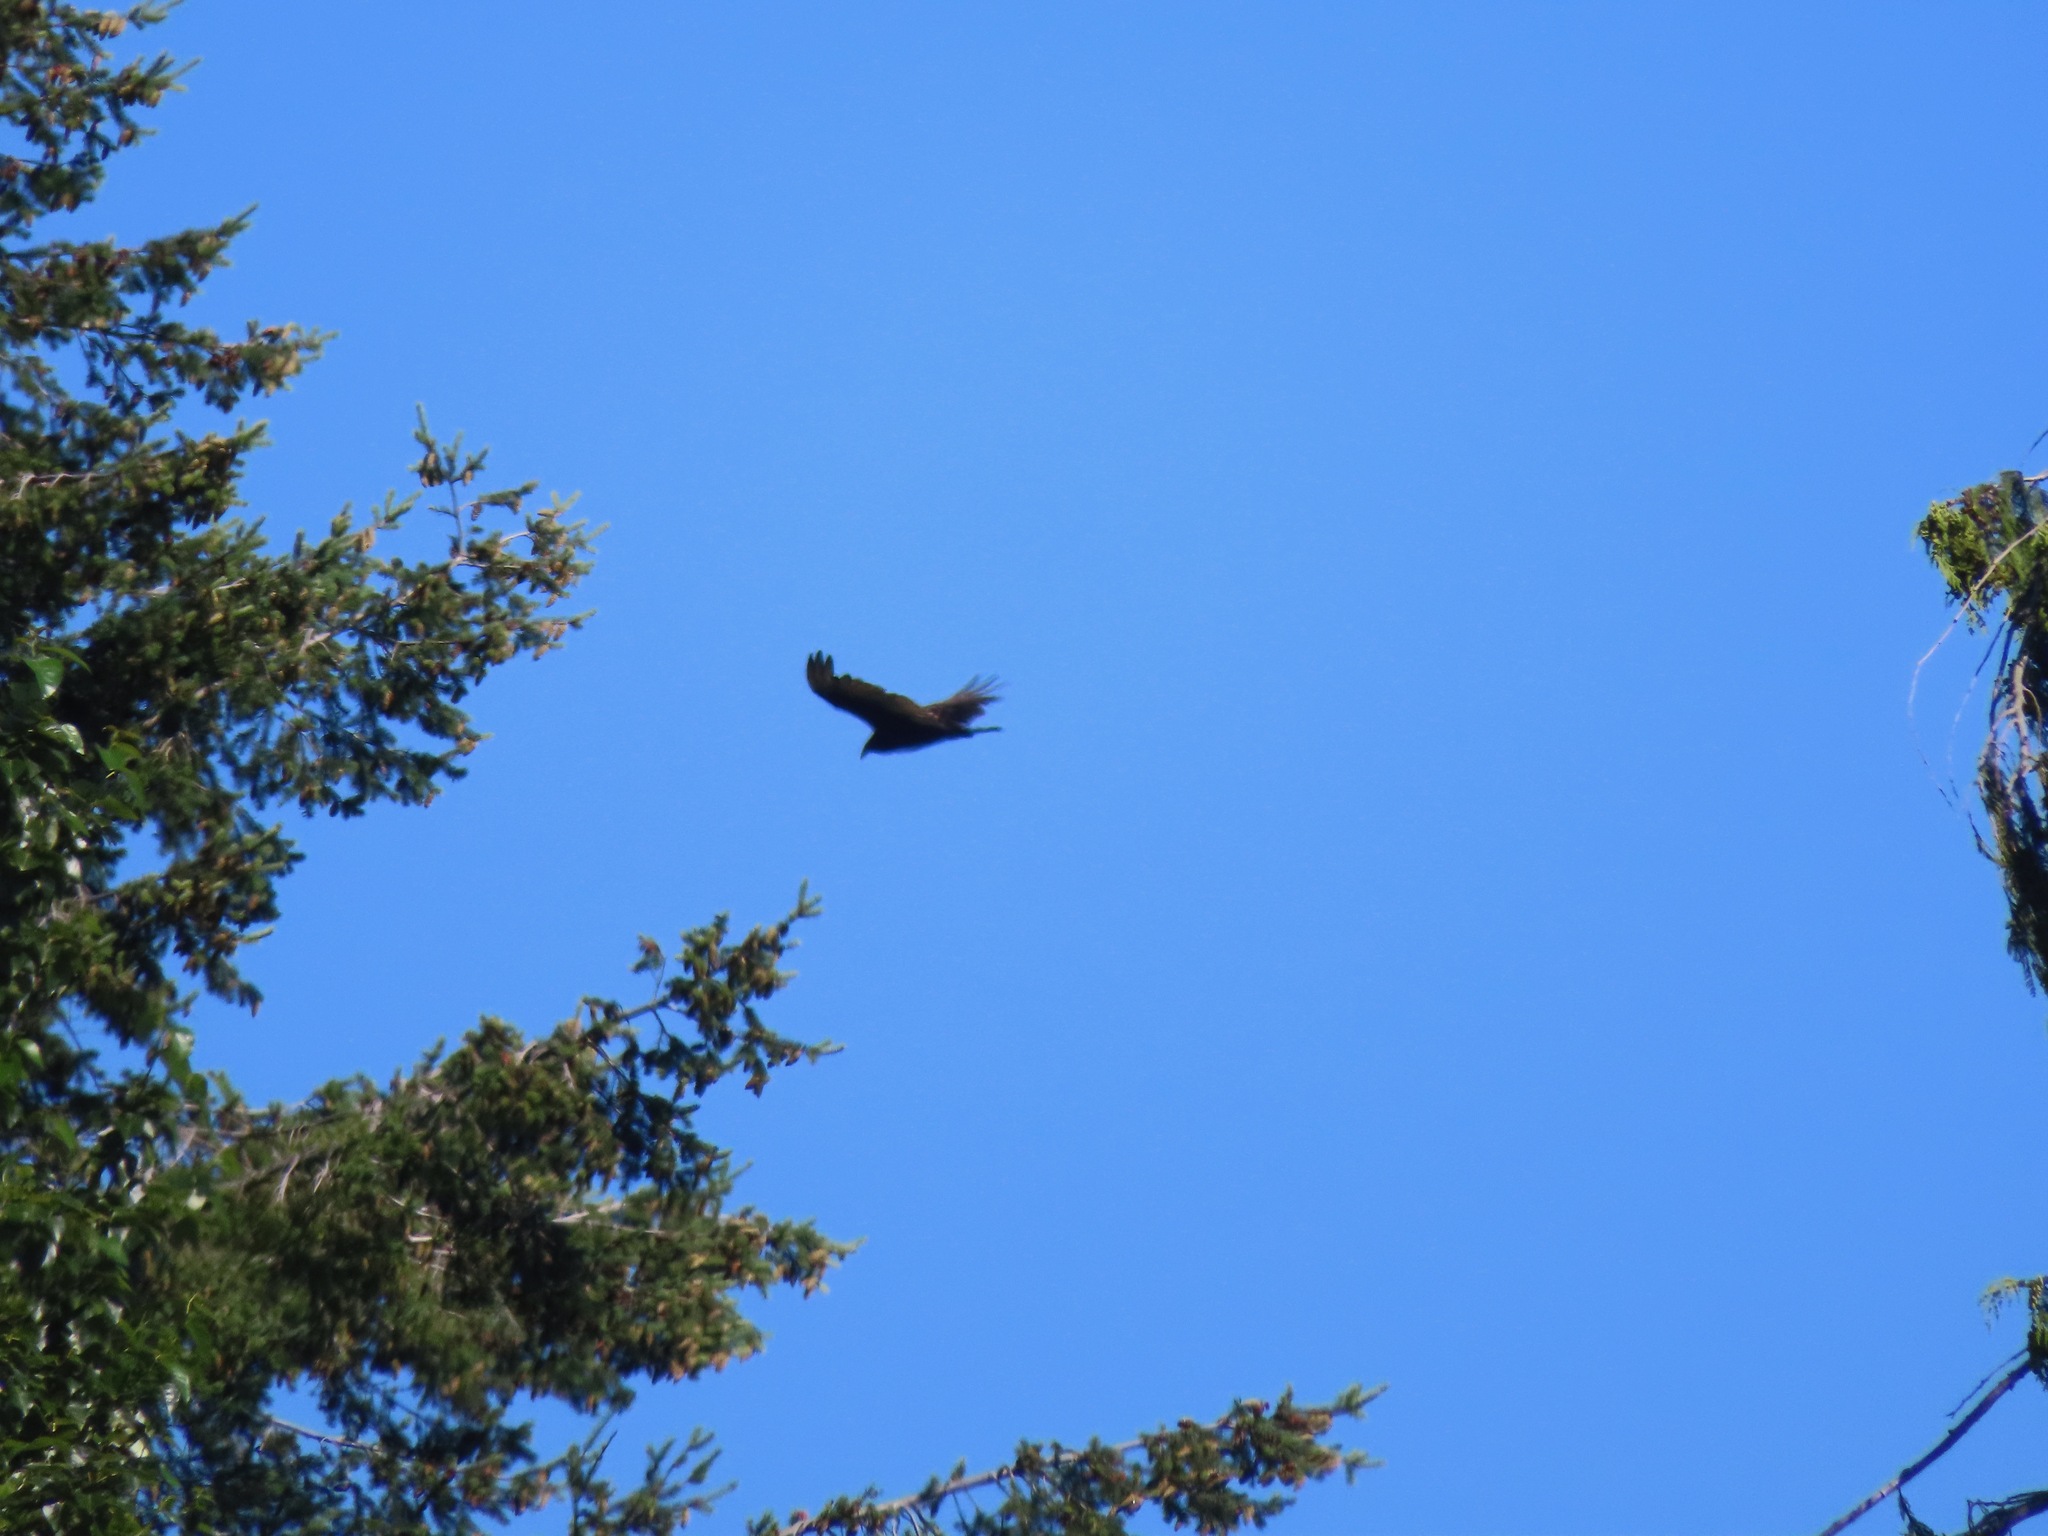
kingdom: Animalia
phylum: Chordata
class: Aves
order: Accipitriformes
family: Cathartidae
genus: Cathartes
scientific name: Cathartes aura
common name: Turkey vulture
